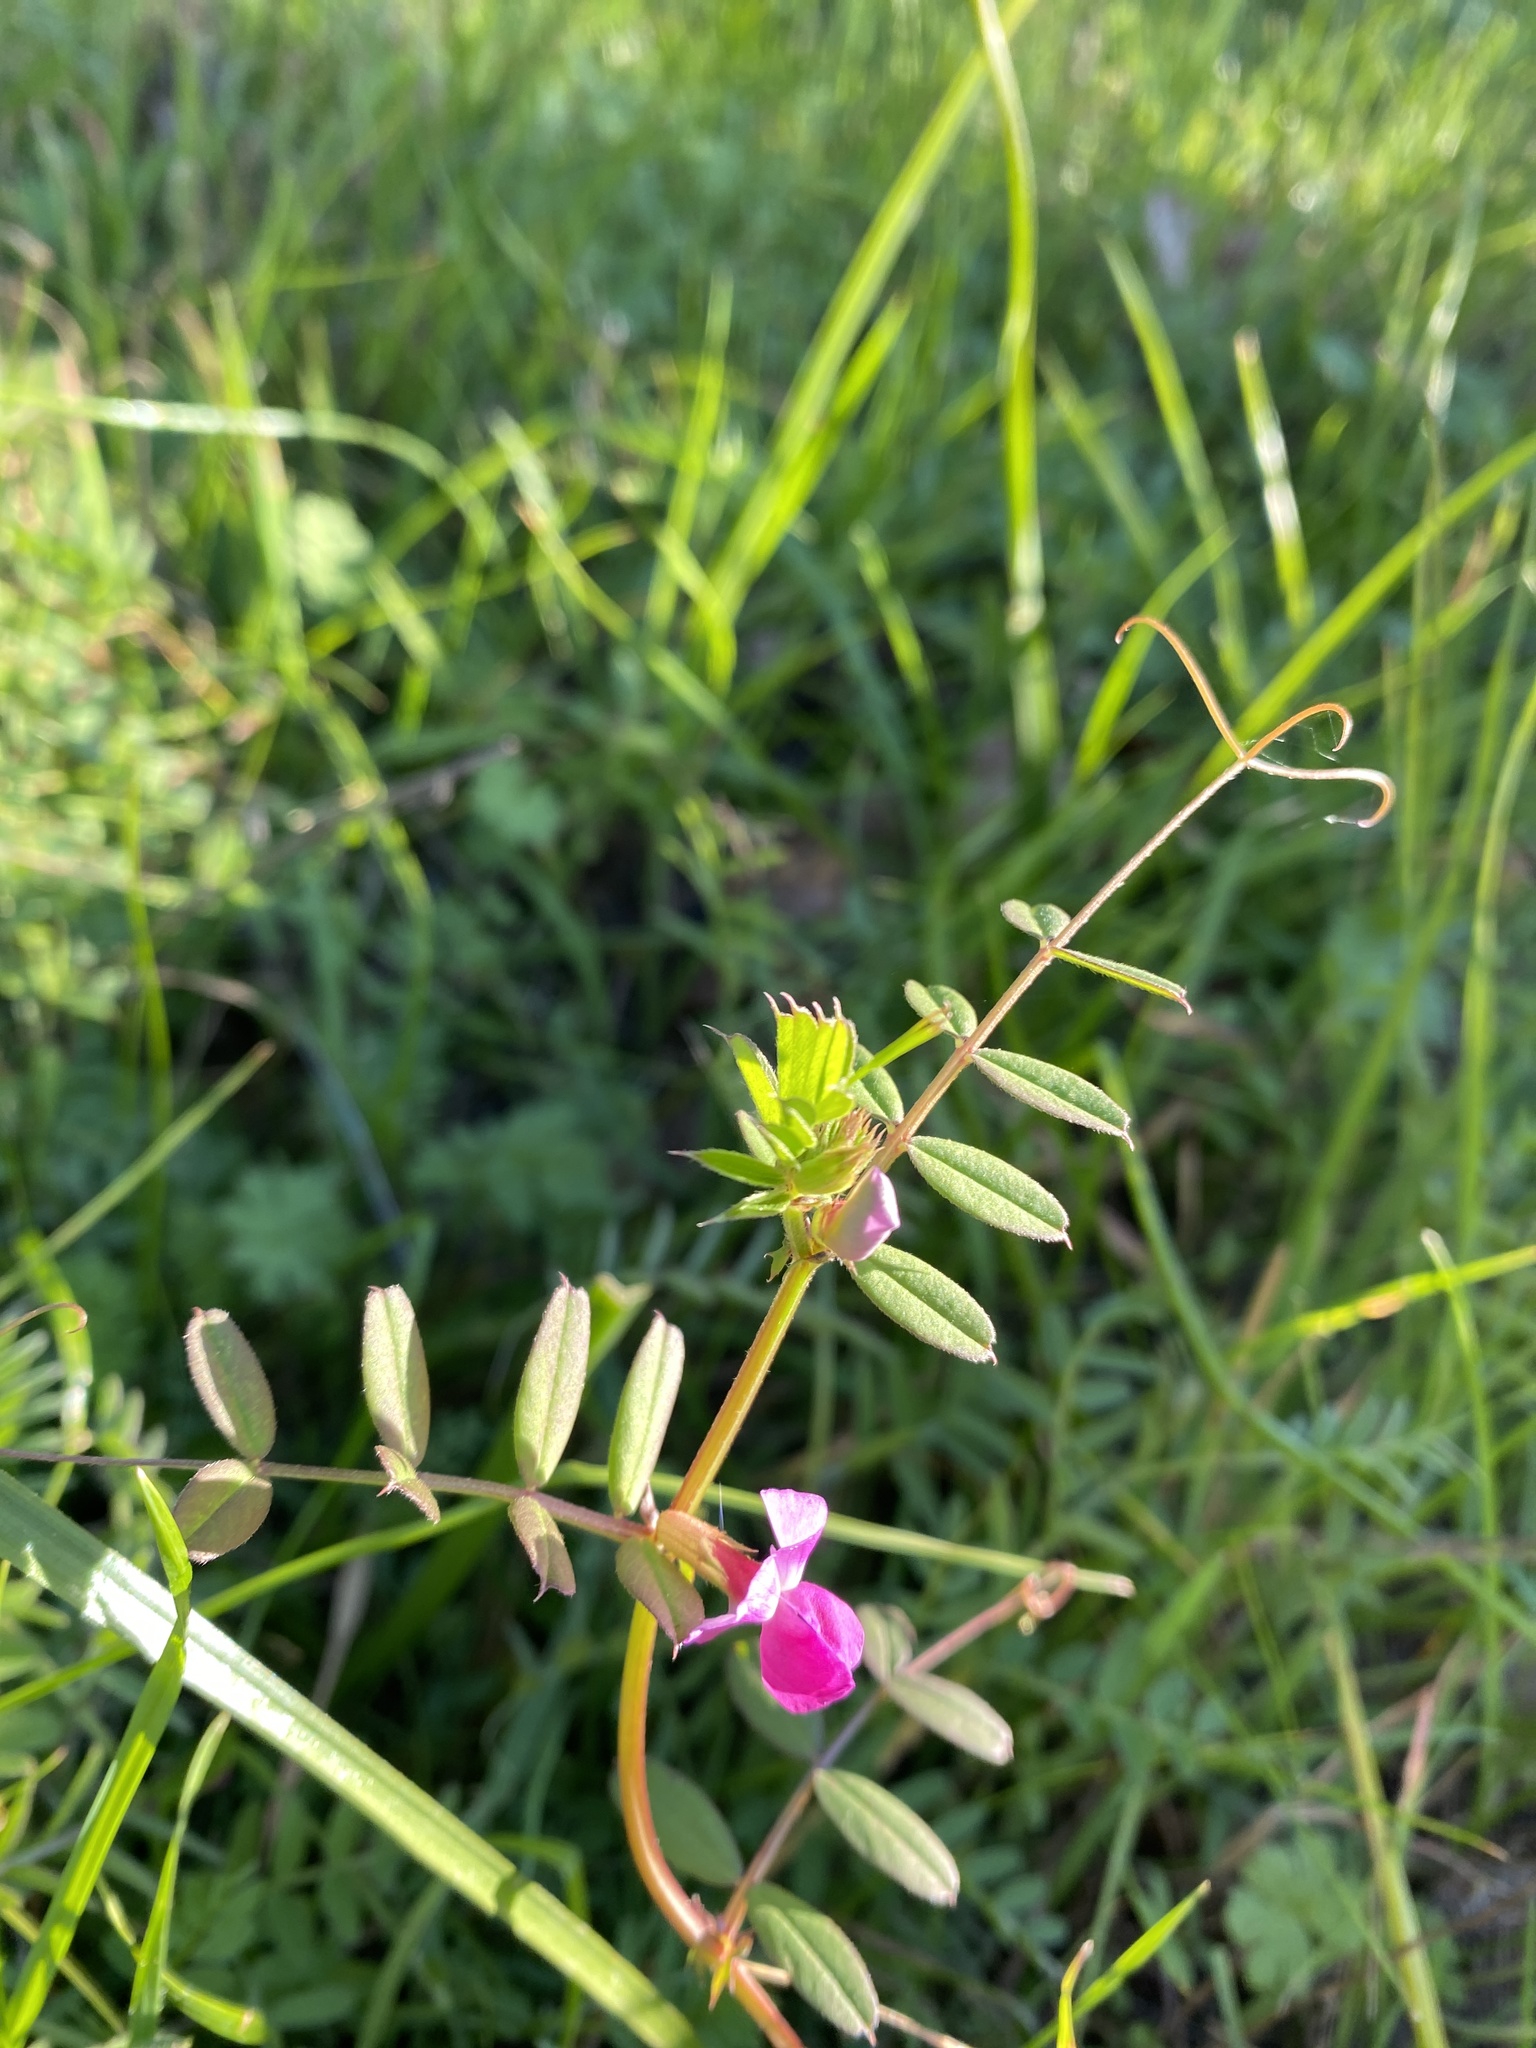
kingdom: Plantae
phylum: Tracheophyta
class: Magnoliopsida
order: Fabales
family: Fabaceae
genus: Vicia
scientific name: Vicia sativa
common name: Garden vetch
